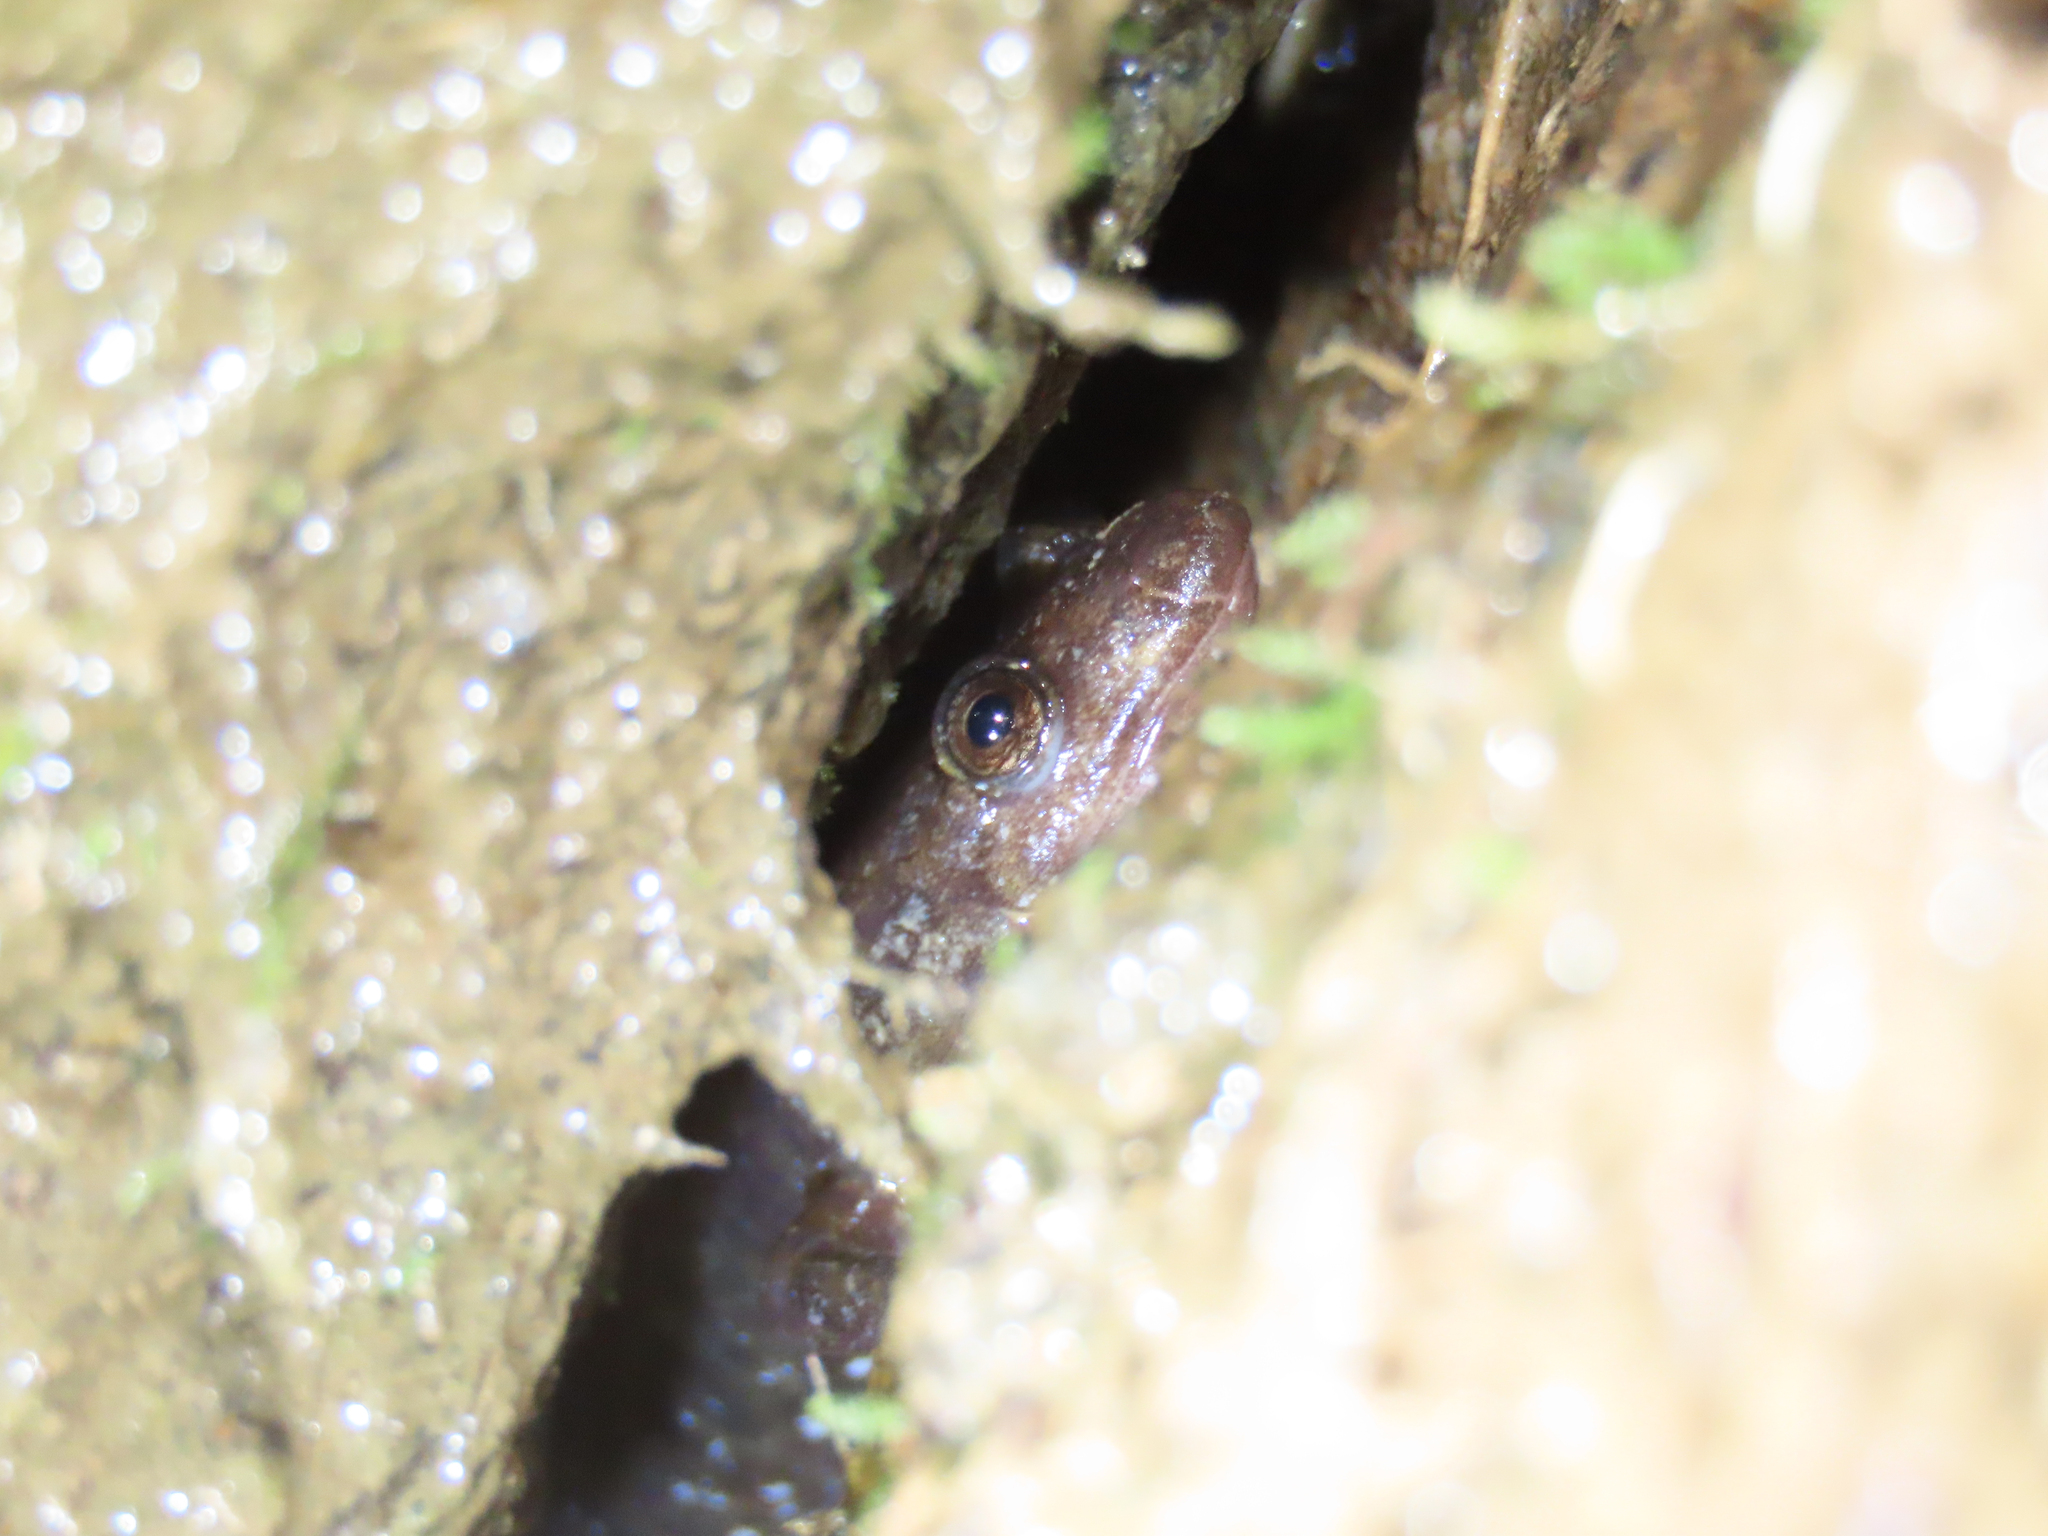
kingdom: Animalia
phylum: Chordata
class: Amphibia
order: Caudata
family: Plethodontidae
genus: Desmognathus
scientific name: Desmognathus monticola
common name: Seal salamander
